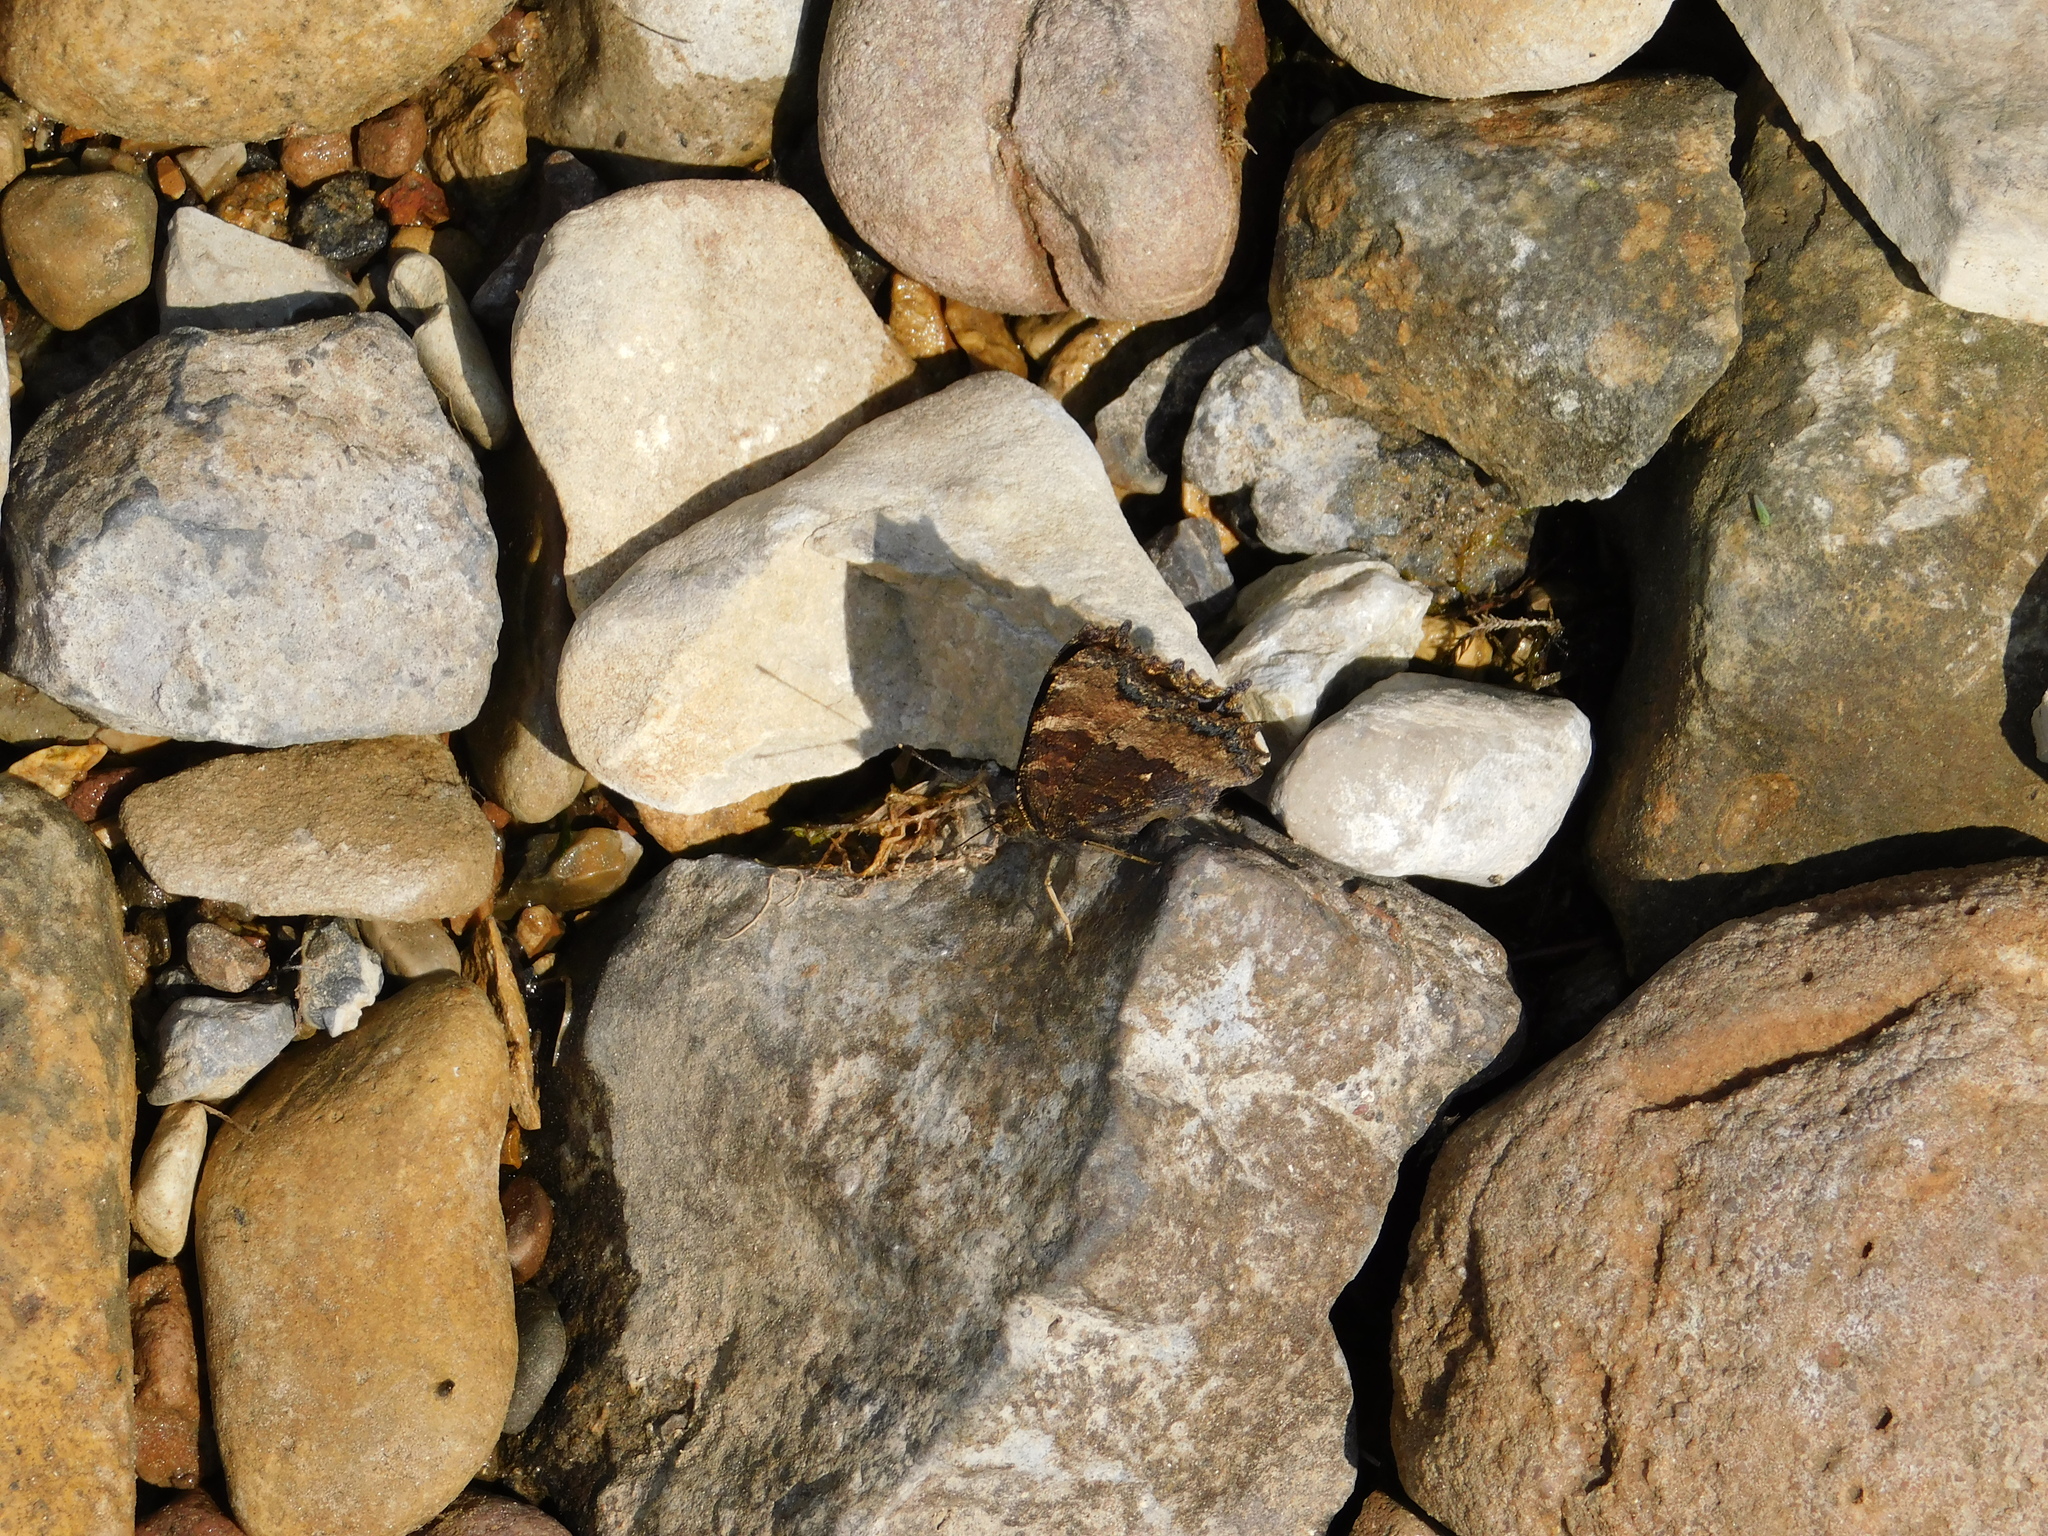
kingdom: Animalia
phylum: Arthropoda
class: Insecta
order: Lepidoptera
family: Nymphalidae
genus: Nymphalis
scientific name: Nymphalis xanthomelas
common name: Scarce tortoiseshell
